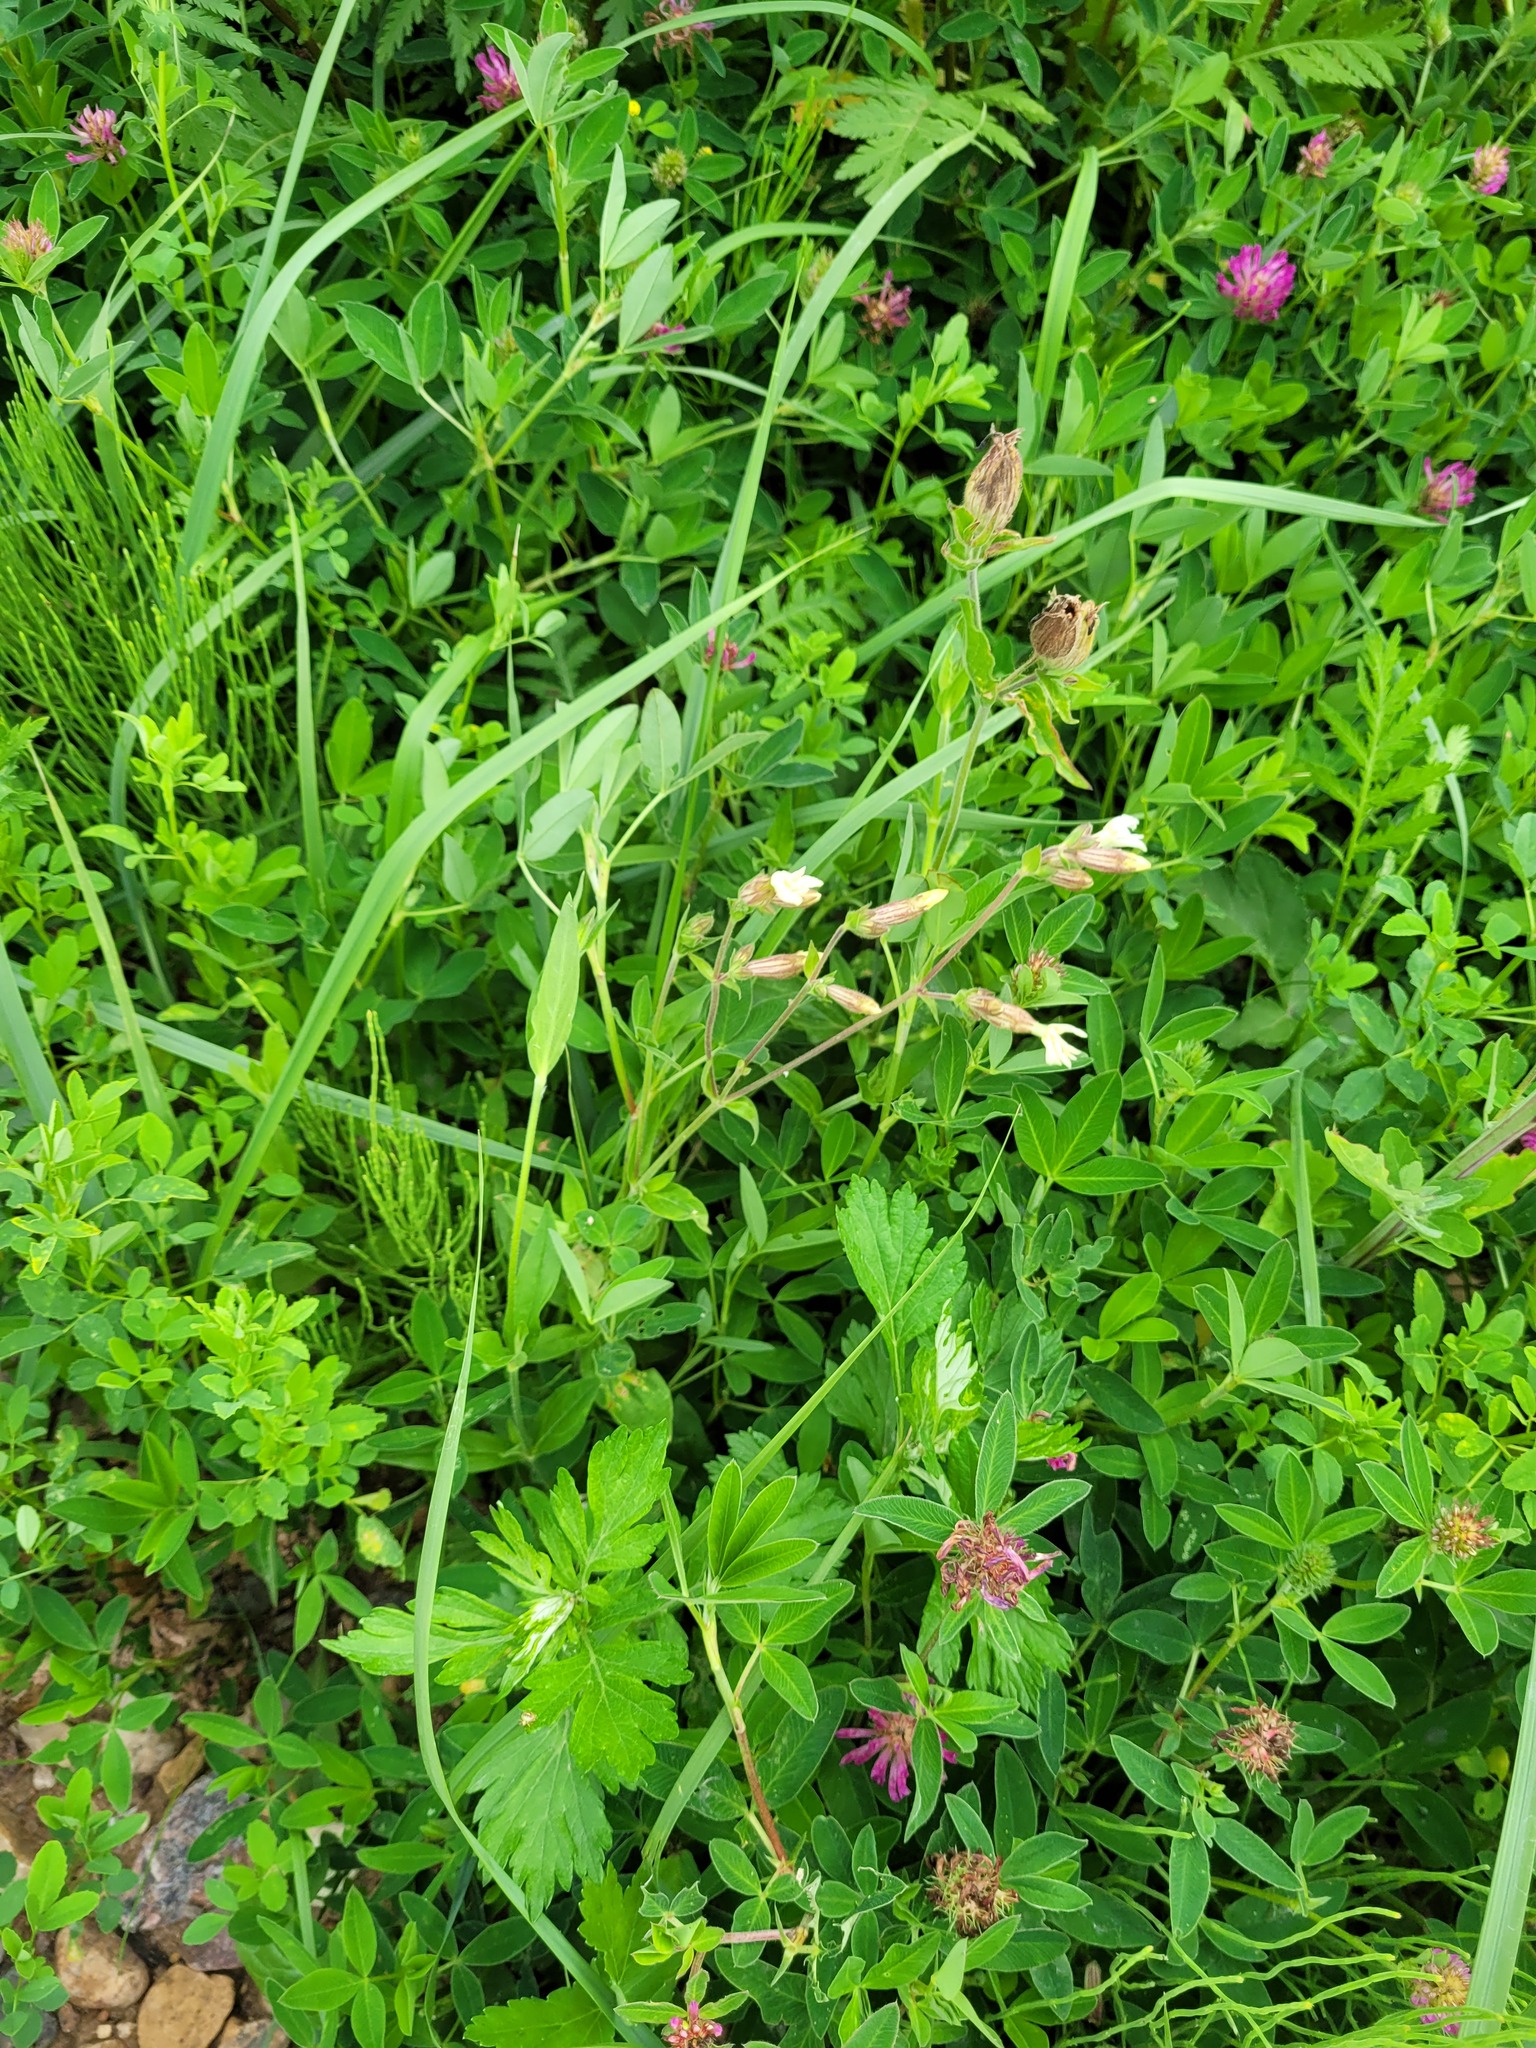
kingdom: Plantae
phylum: Tracheophyta
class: Magnoliopsida
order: Caryophyllales
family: Caryophyllaceae
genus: Silene
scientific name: Silene latifolia
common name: White campion
